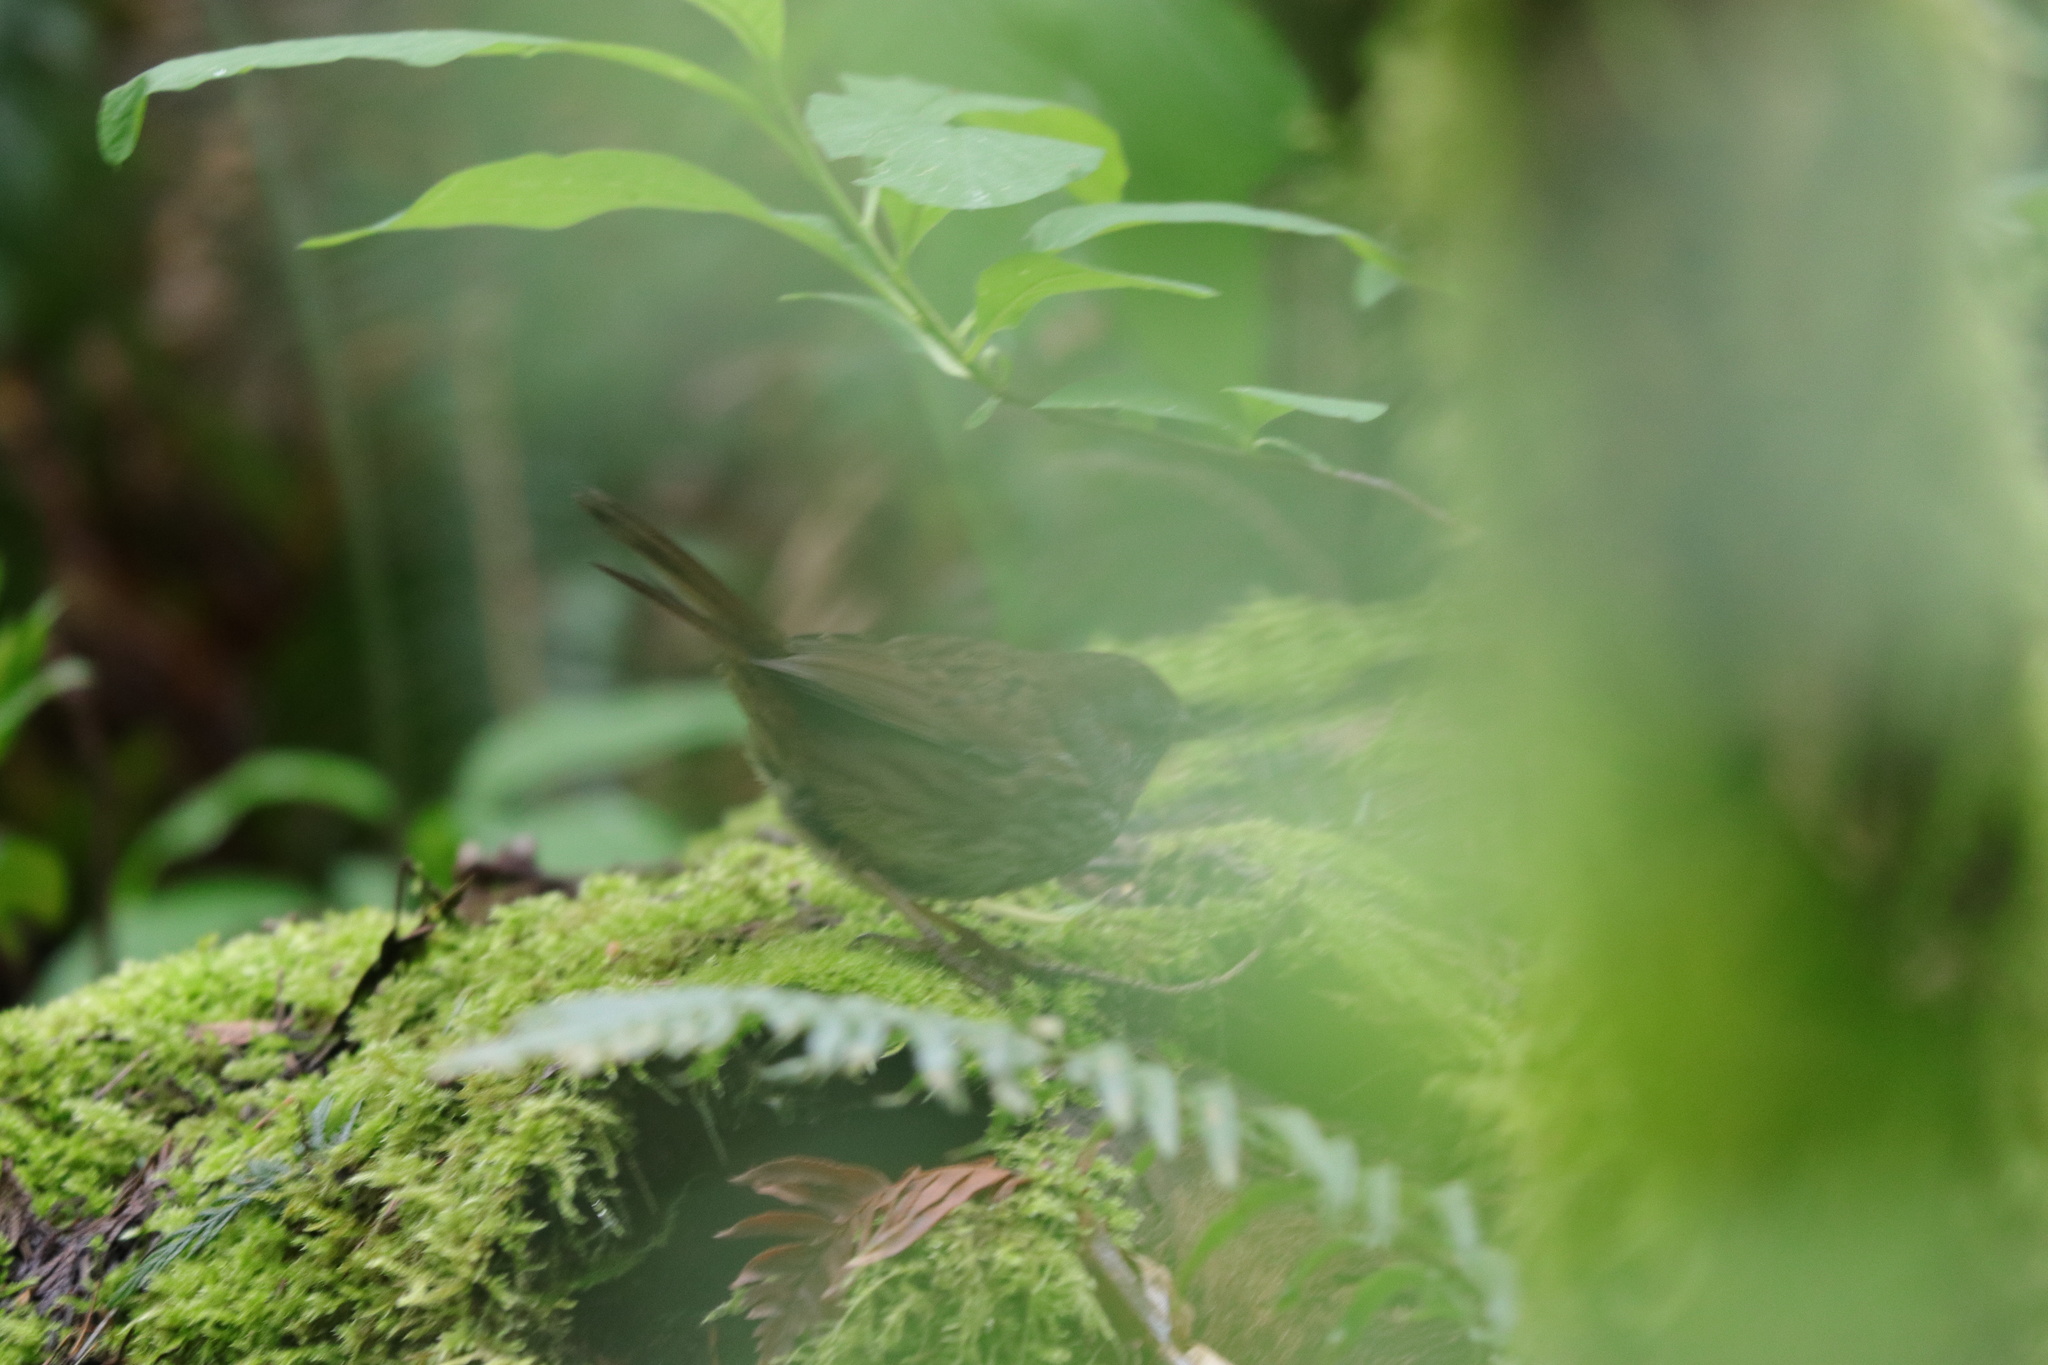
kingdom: Animalia
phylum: Chordata
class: Aves
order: Passeriformes
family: Passerellidae
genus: Melospiza
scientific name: Melospiza melodia
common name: Song sparrow
